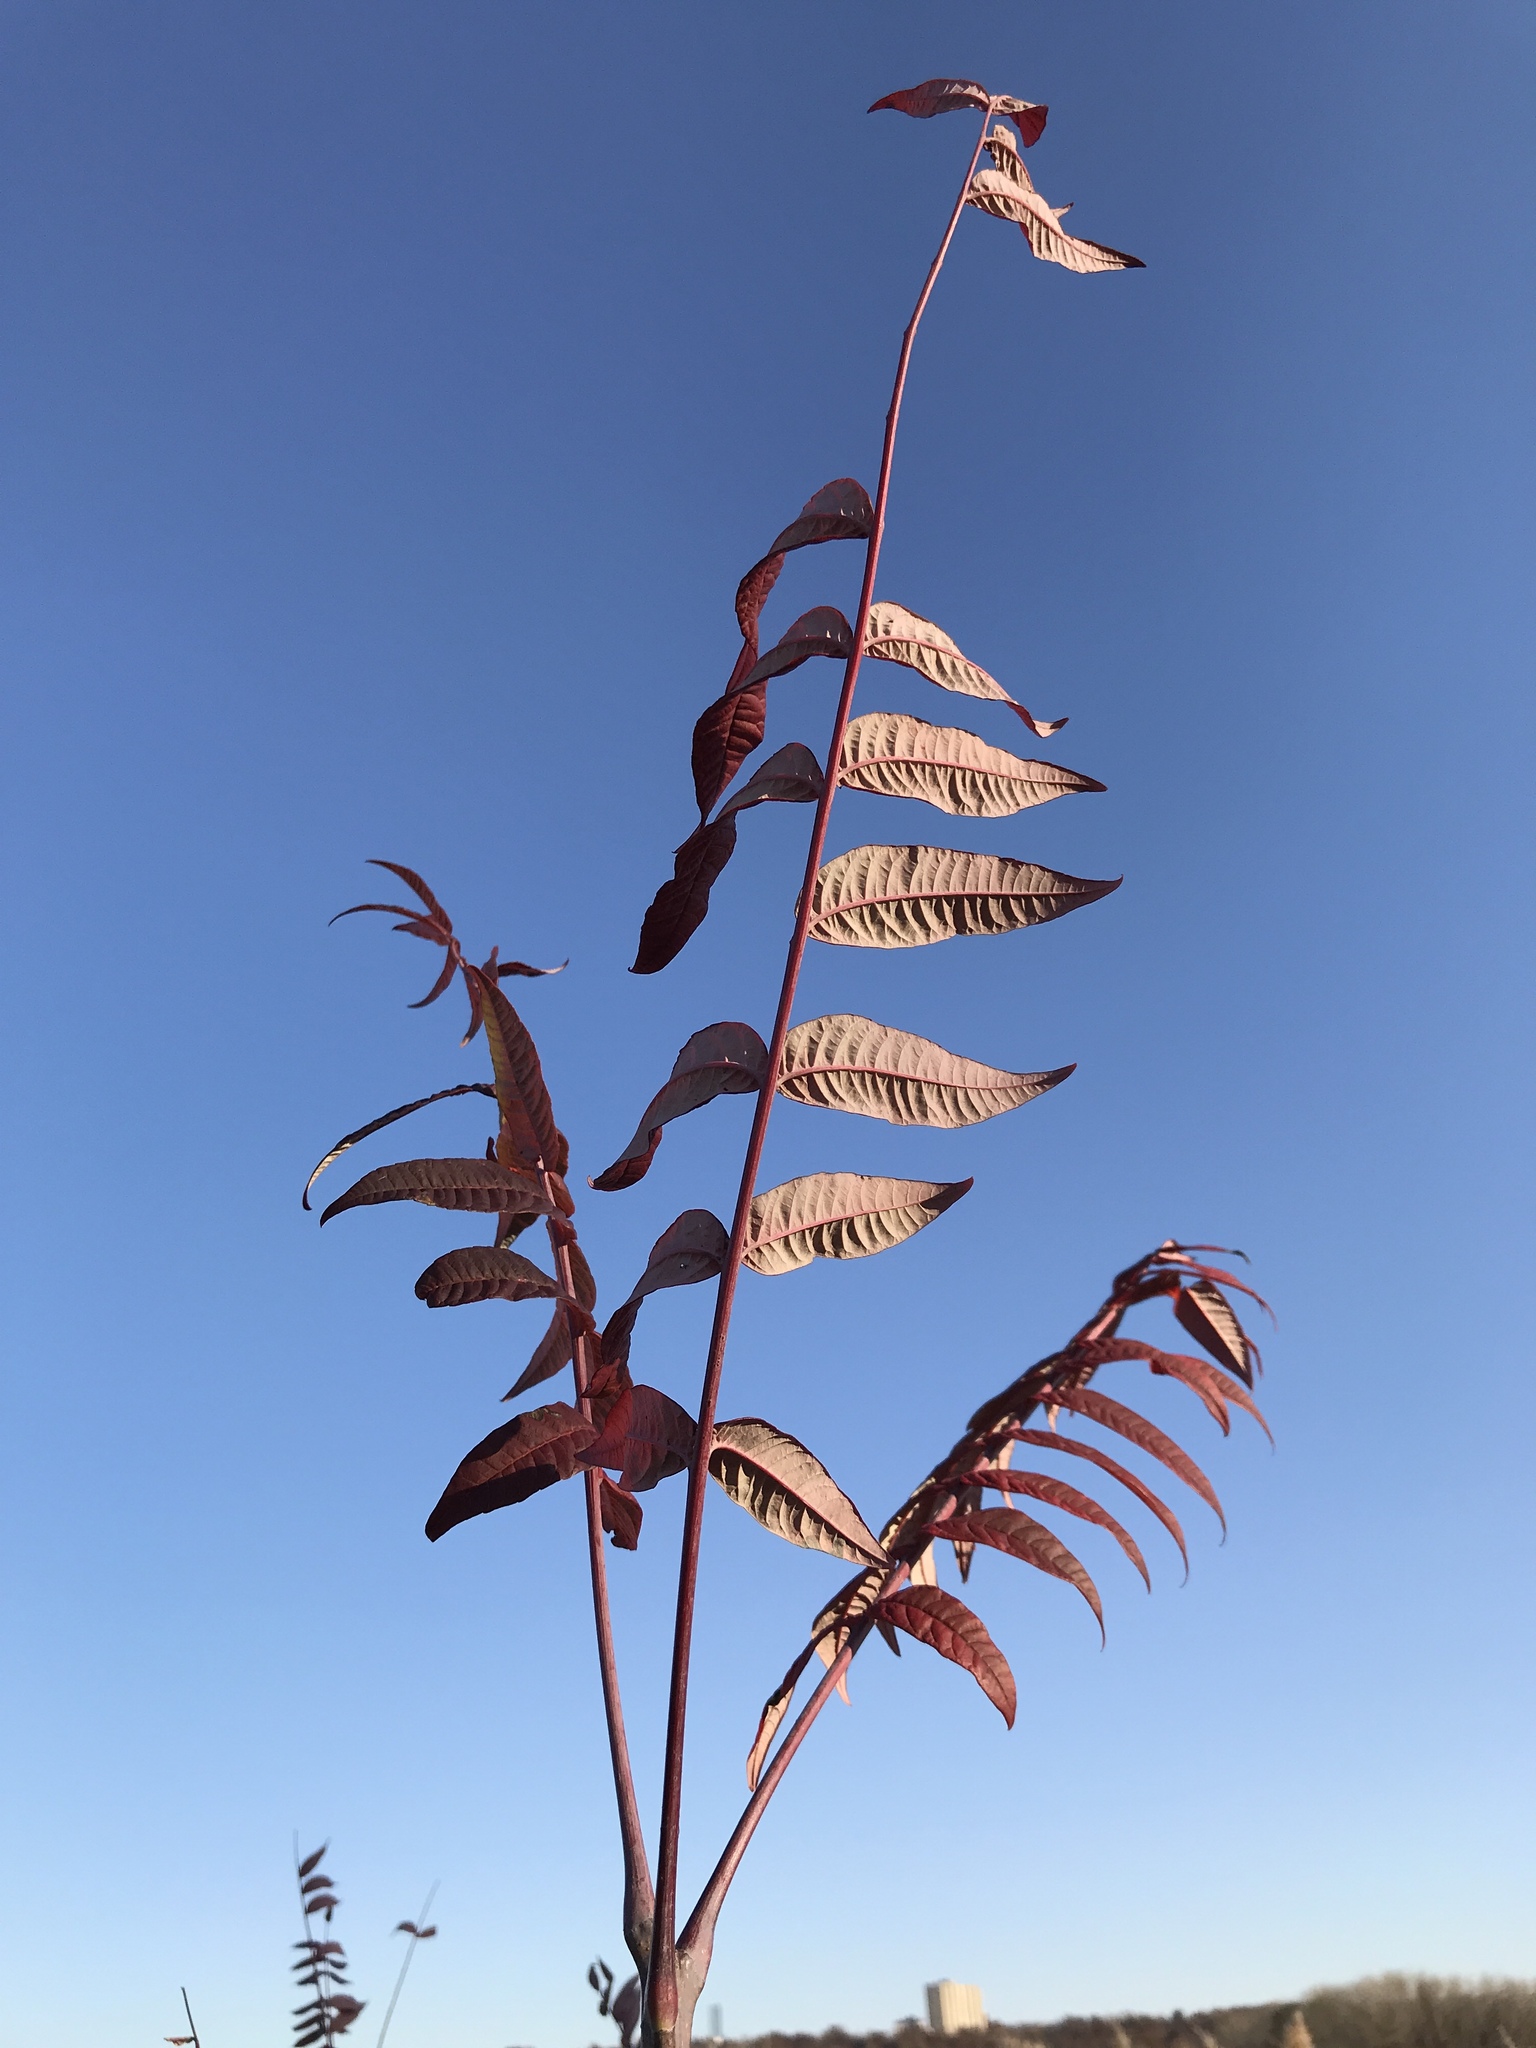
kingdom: Plantae
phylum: Tracheophyta
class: Magnoliopsida
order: Sapindales
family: Anacardiaceae
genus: Rhus
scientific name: Rhus glabra
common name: Scarlet sumac
